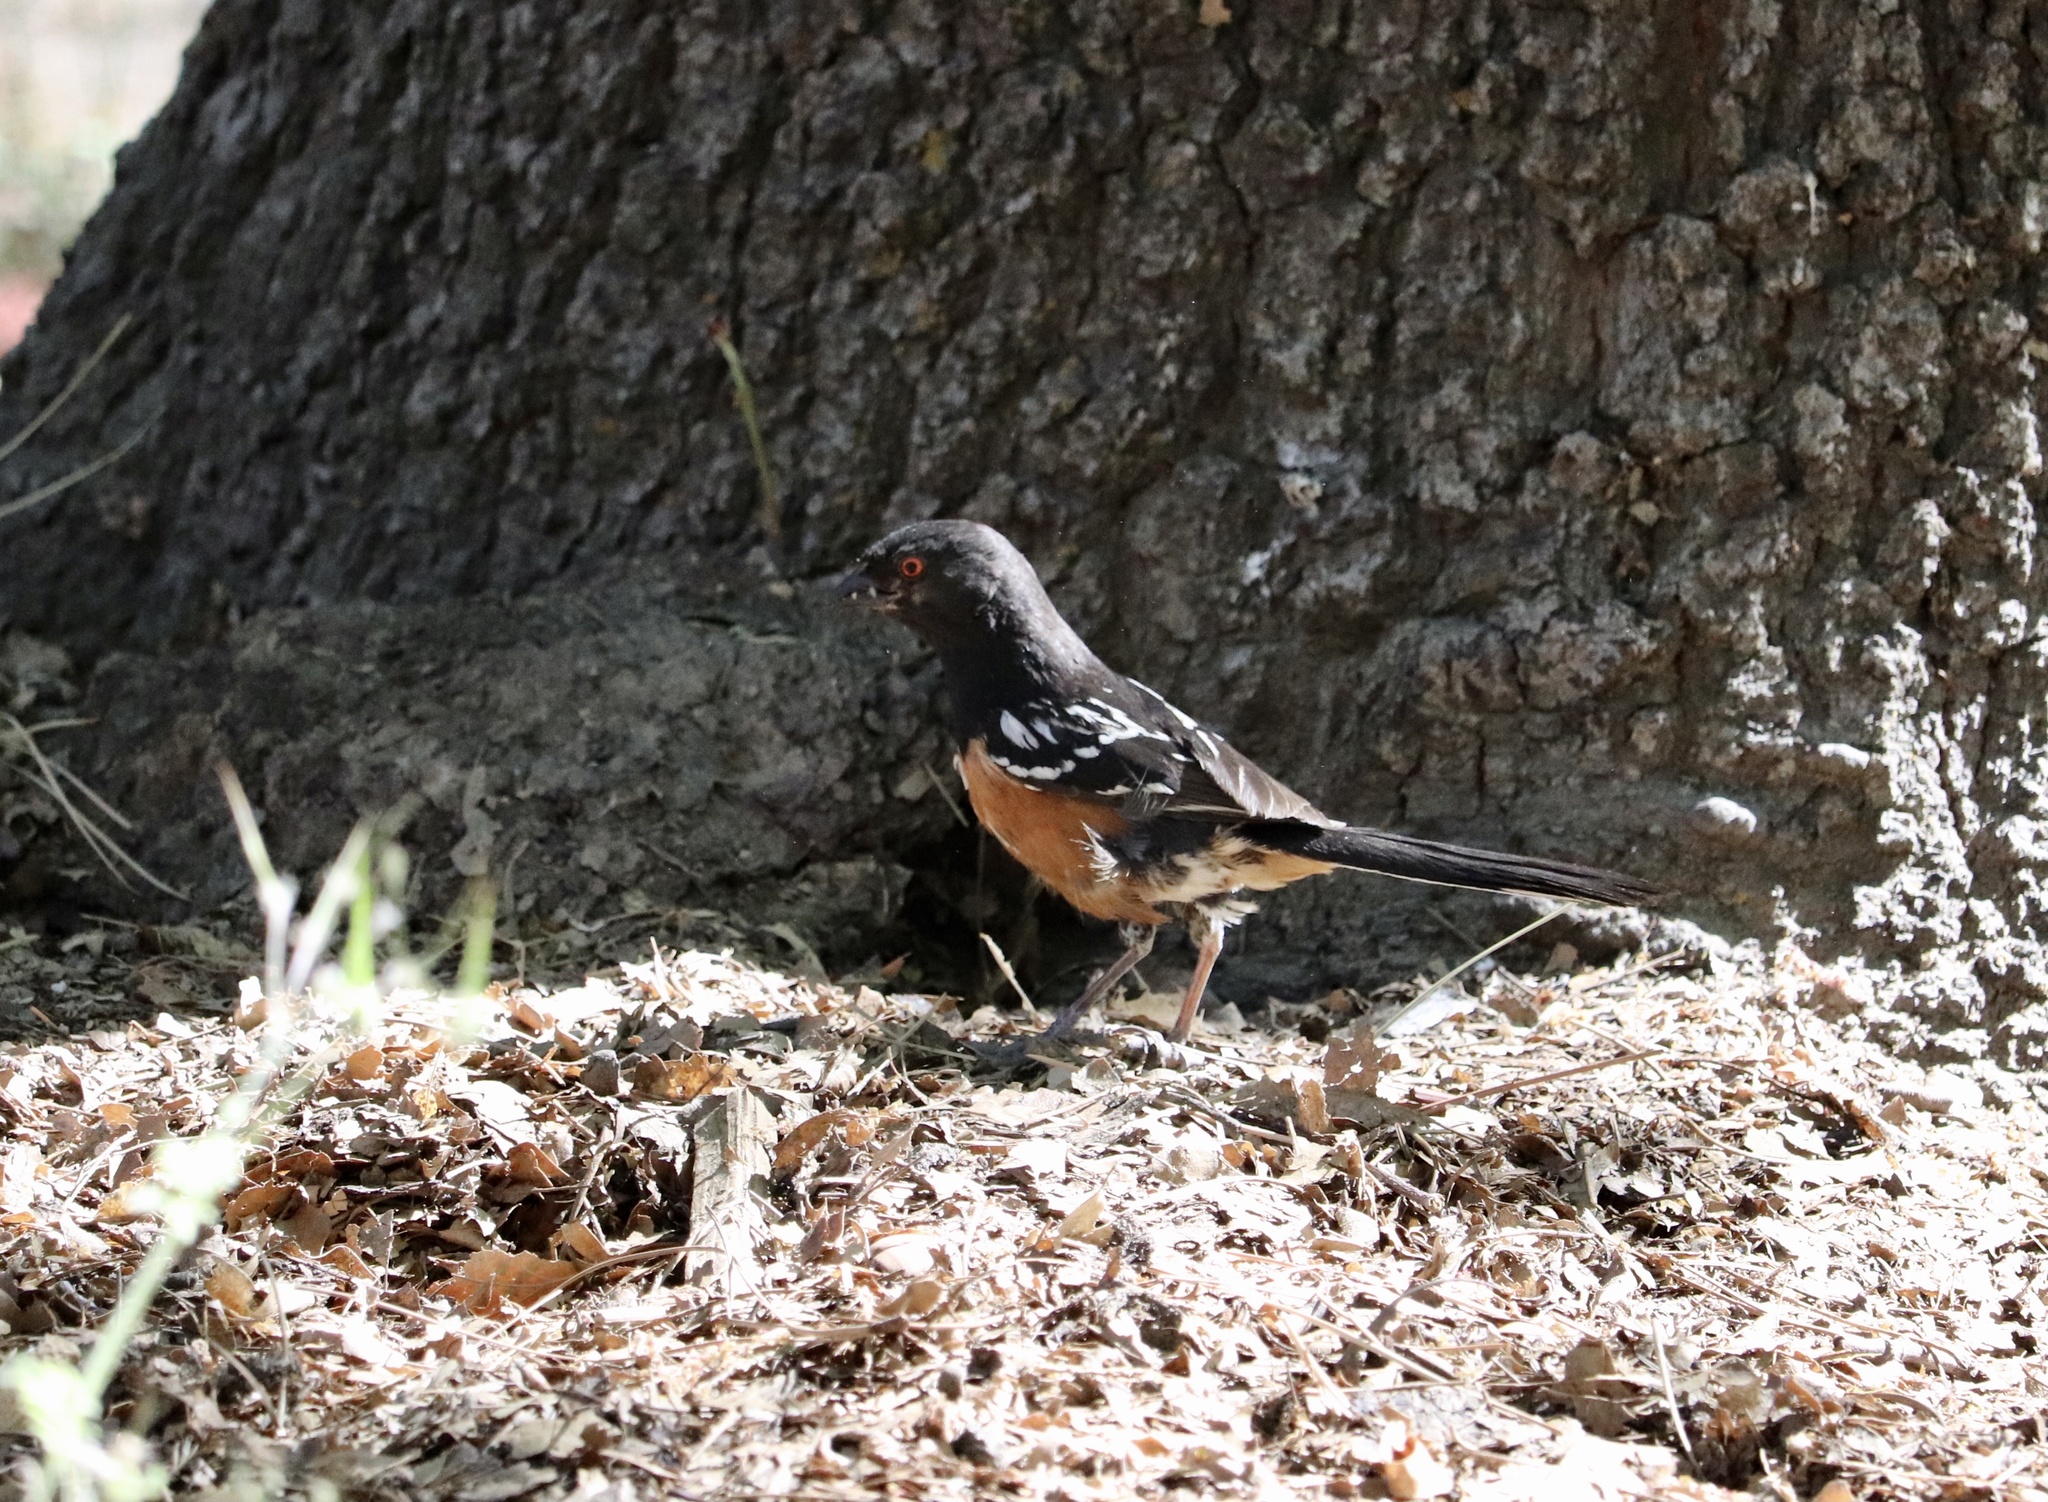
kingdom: Animalia
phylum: Chordata
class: Aves
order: Passeriformes
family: Passerellidae
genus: Pipilo
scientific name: Pipilo maculatus
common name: Spotted towhee
